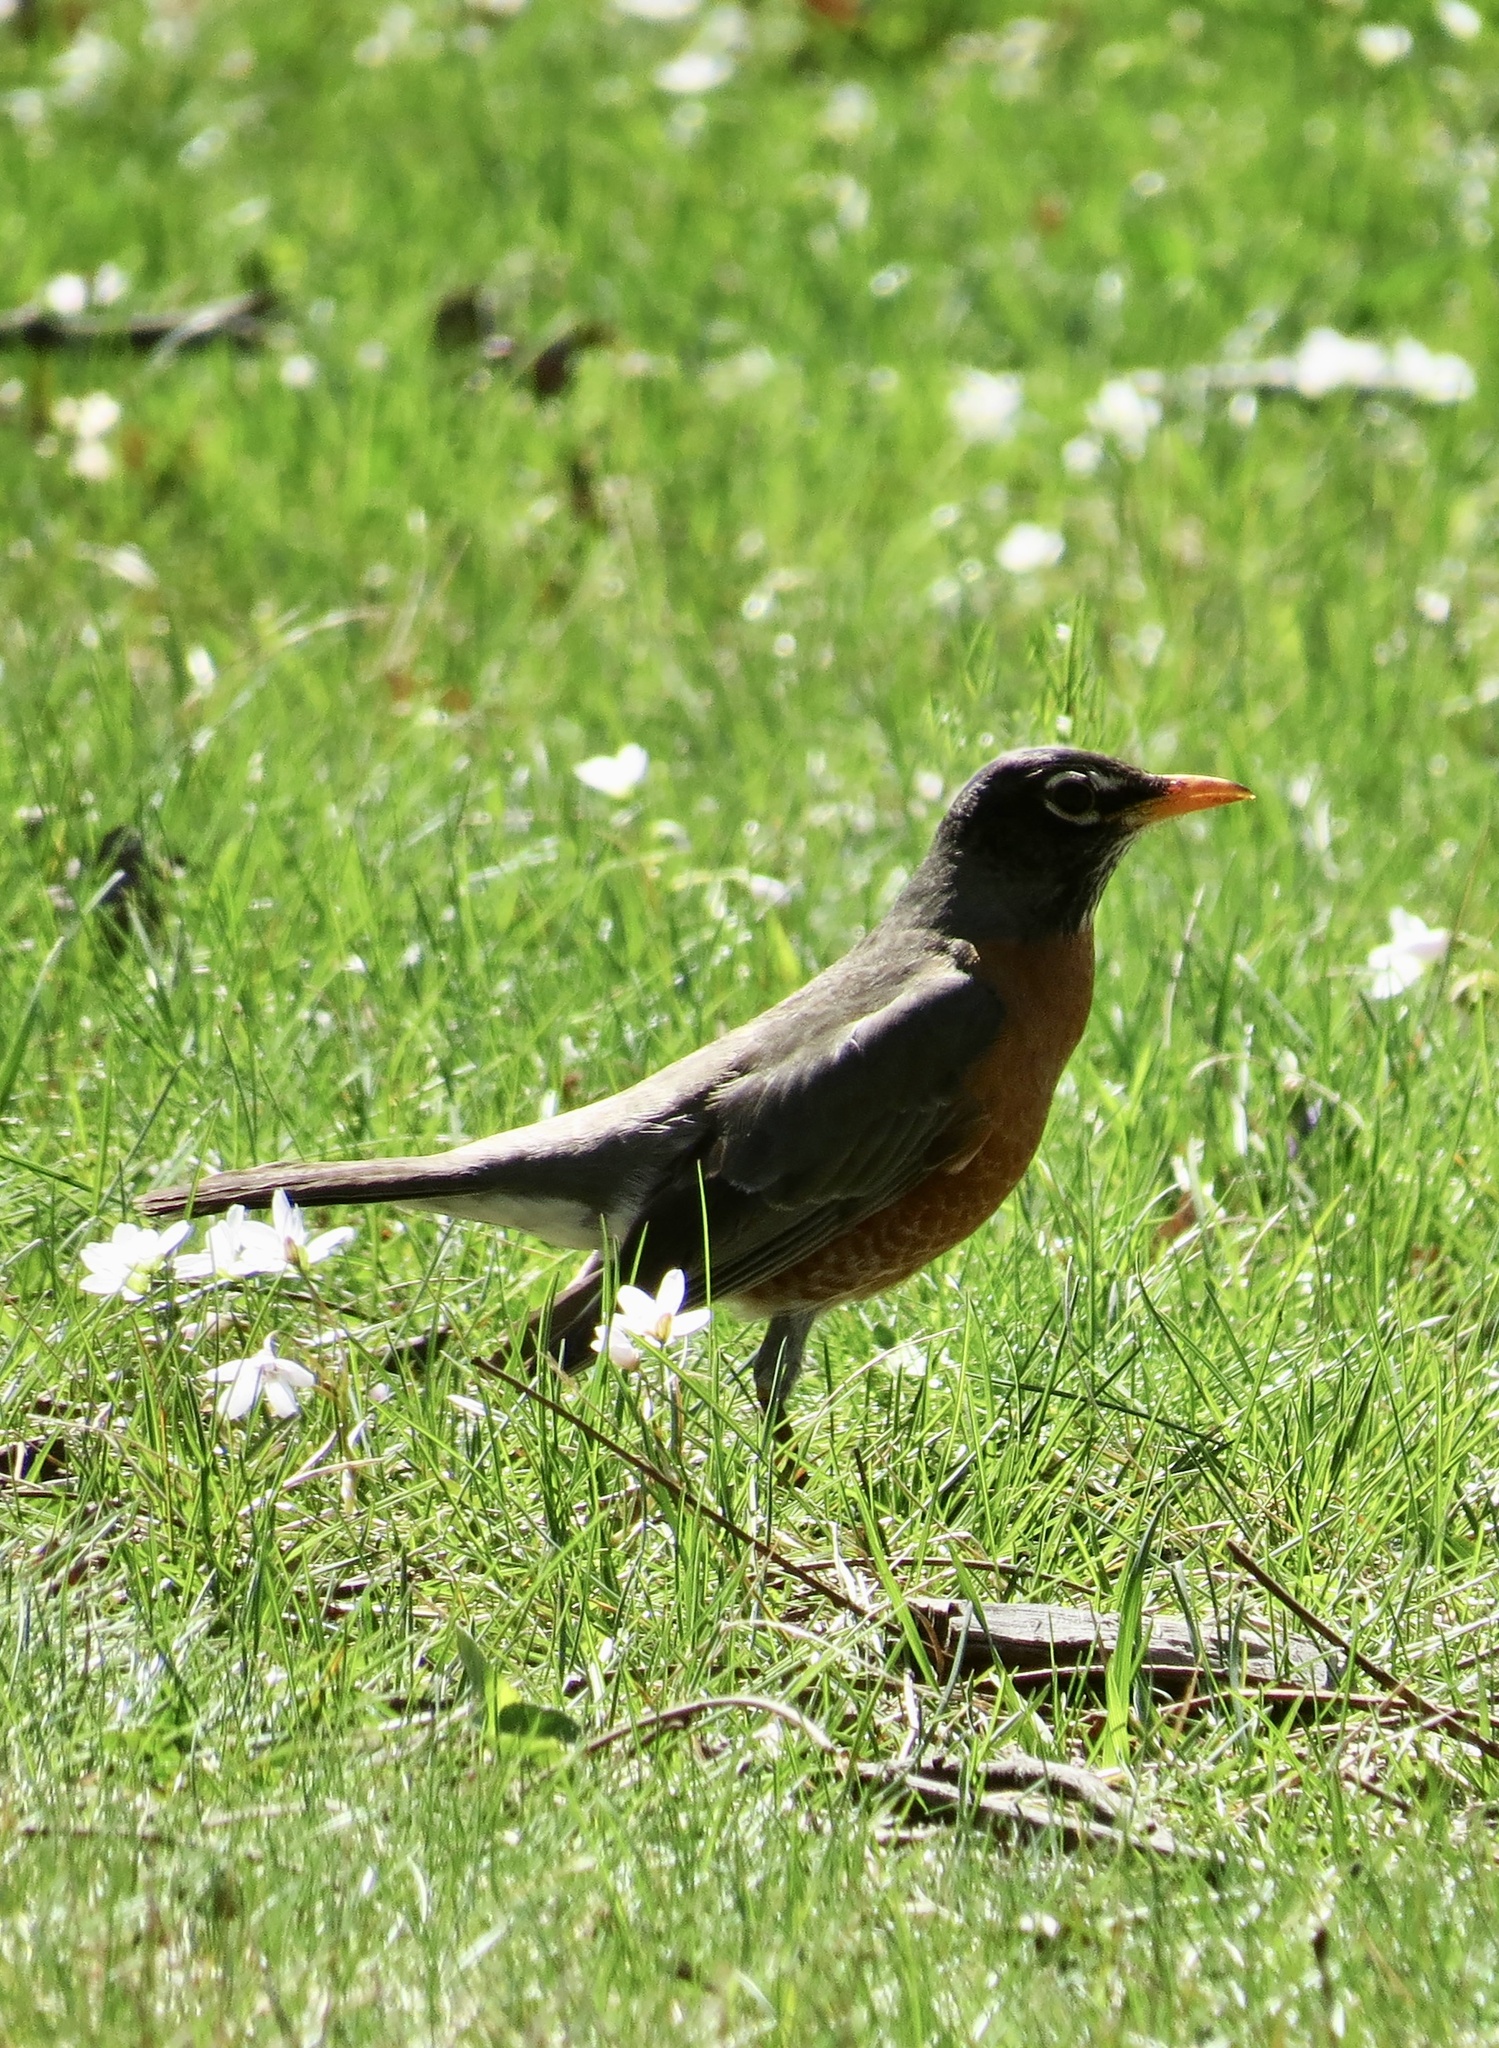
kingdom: Animalia
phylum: Chordata
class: Aves
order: Passeriformes
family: Turdidae
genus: Turdus
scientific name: Turdus migratorius
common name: American robin
